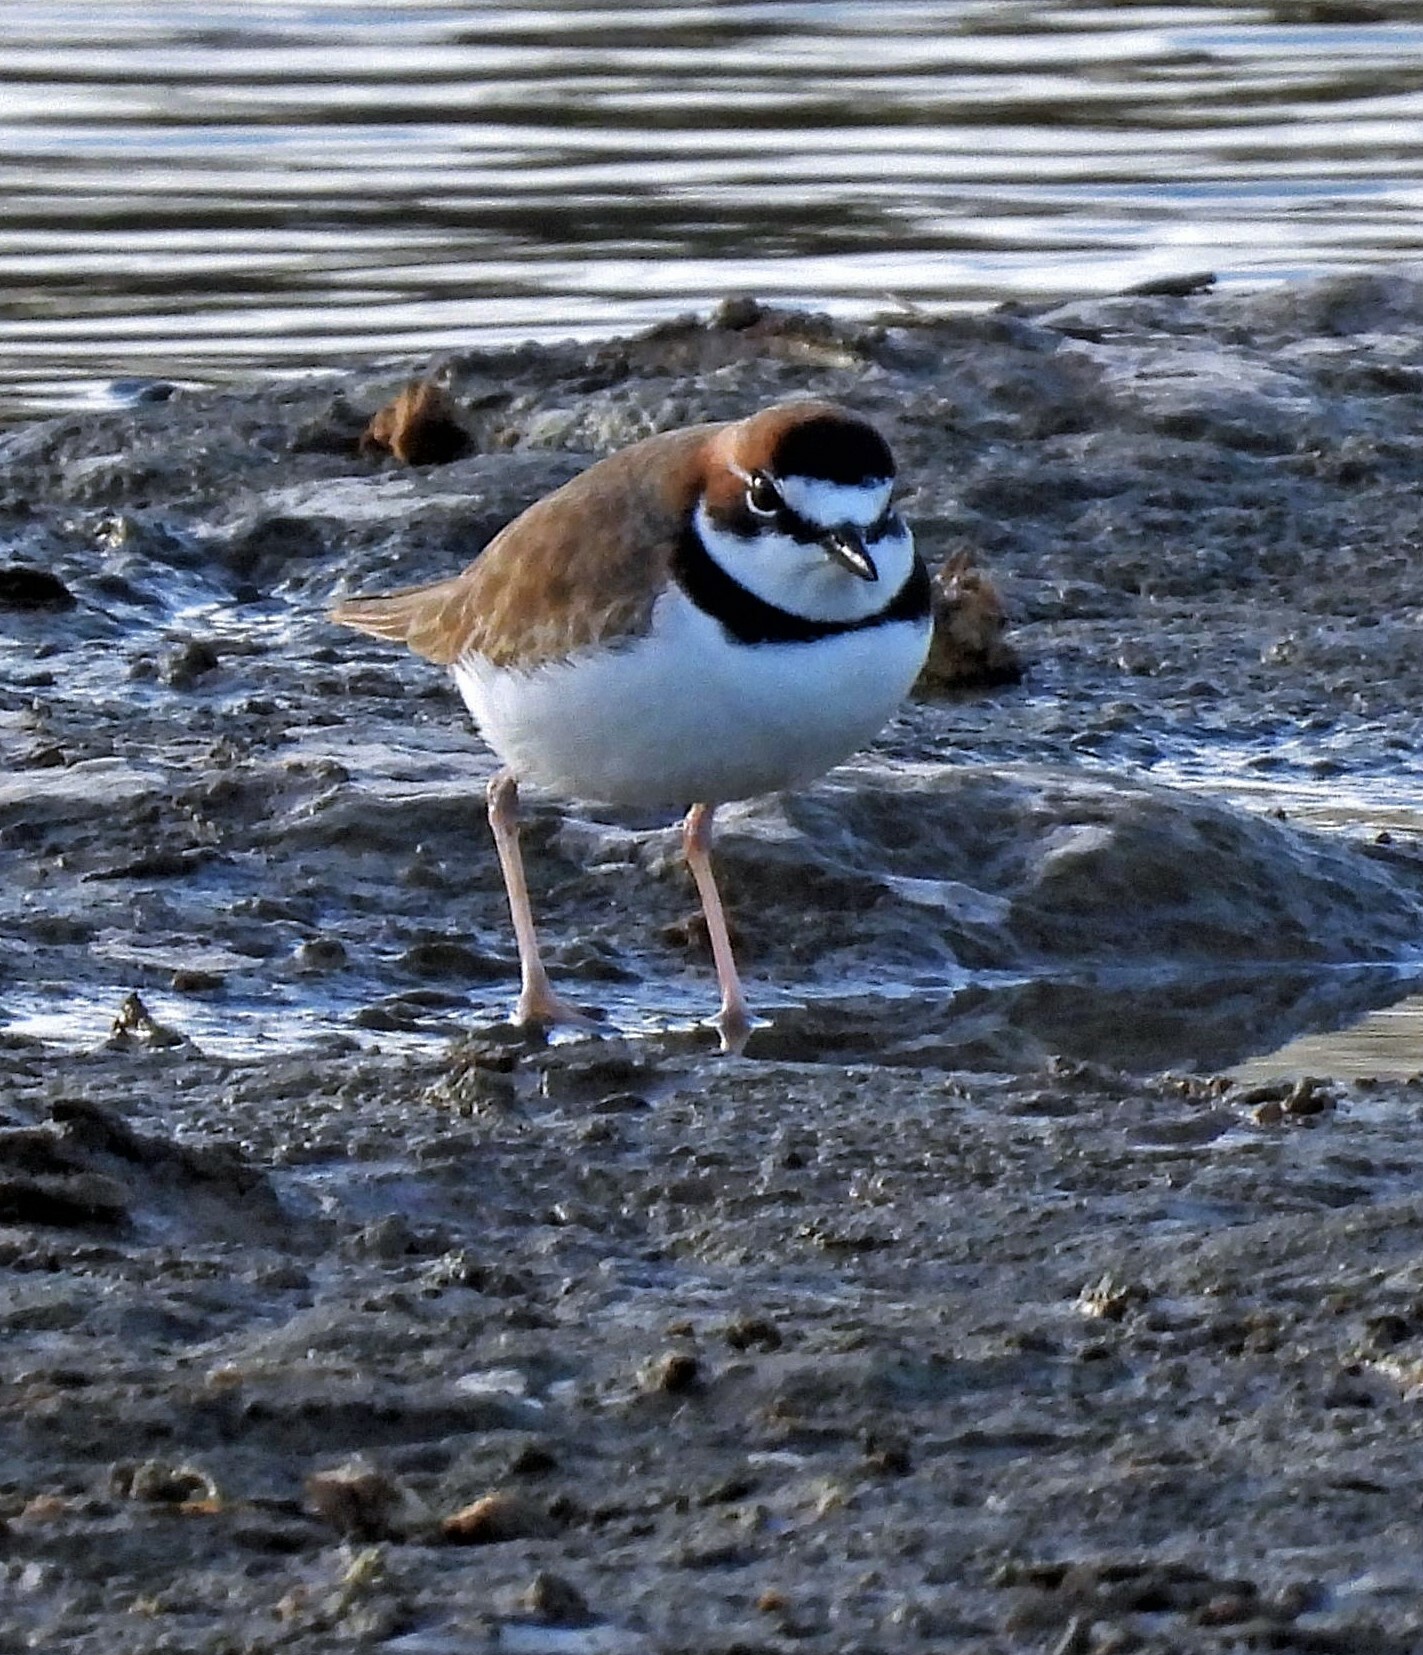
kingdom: Animalia
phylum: Chordata
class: Aves
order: Charadriiformes
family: Charadriidae
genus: Anarhynchus
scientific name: Anarhynchus
